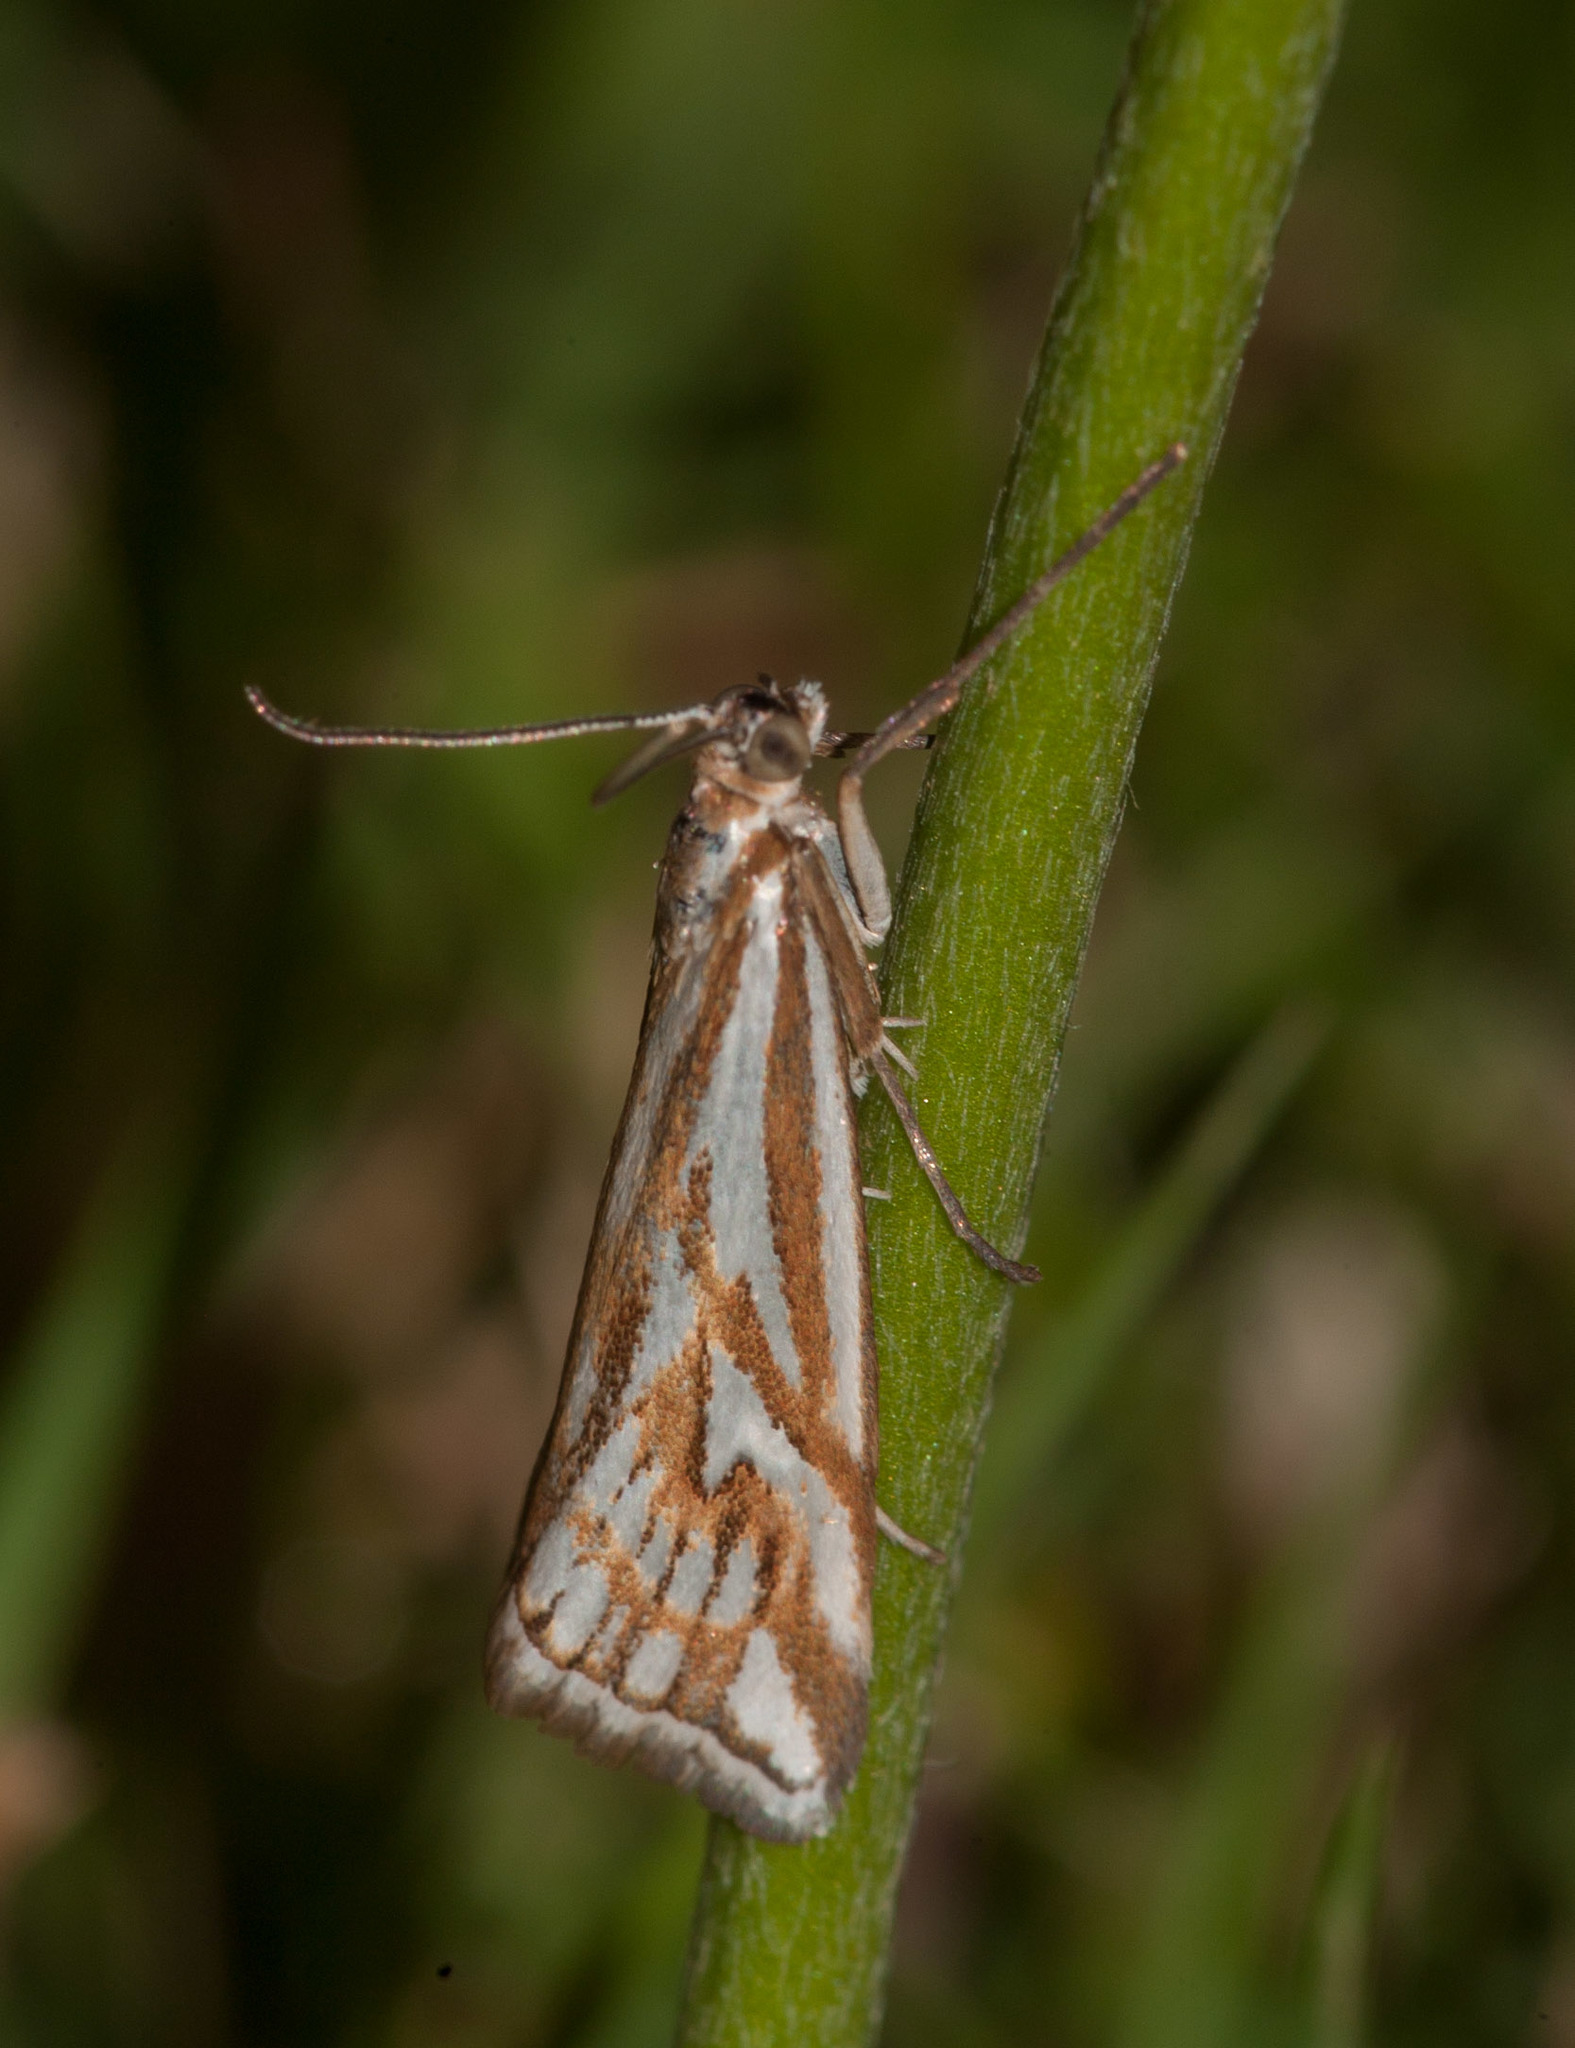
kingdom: Animalia
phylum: Arthropoda
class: Insecta
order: Lepidoptera
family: Crambidae
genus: Hednota
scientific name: Hednota pleniferellus
